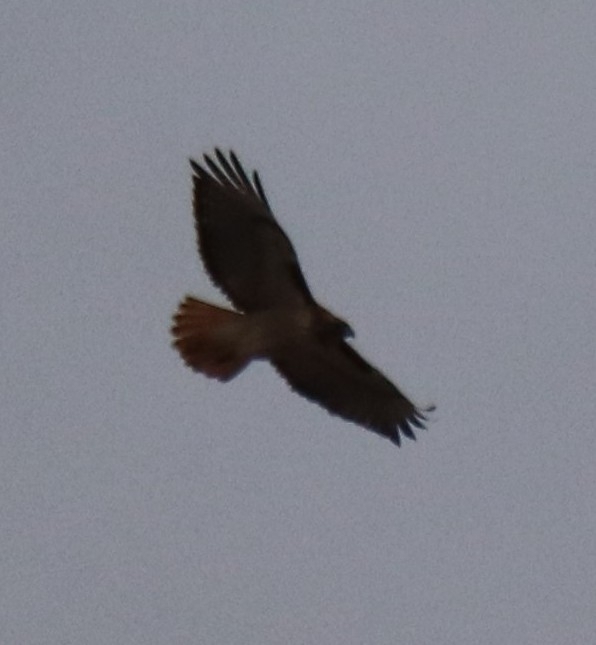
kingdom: Animalia
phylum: Chordata
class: Aves
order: Accipitriformes
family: Accipitridae
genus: Buteo
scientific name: Buteo jamaicensis
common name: Red-tailed hawk
